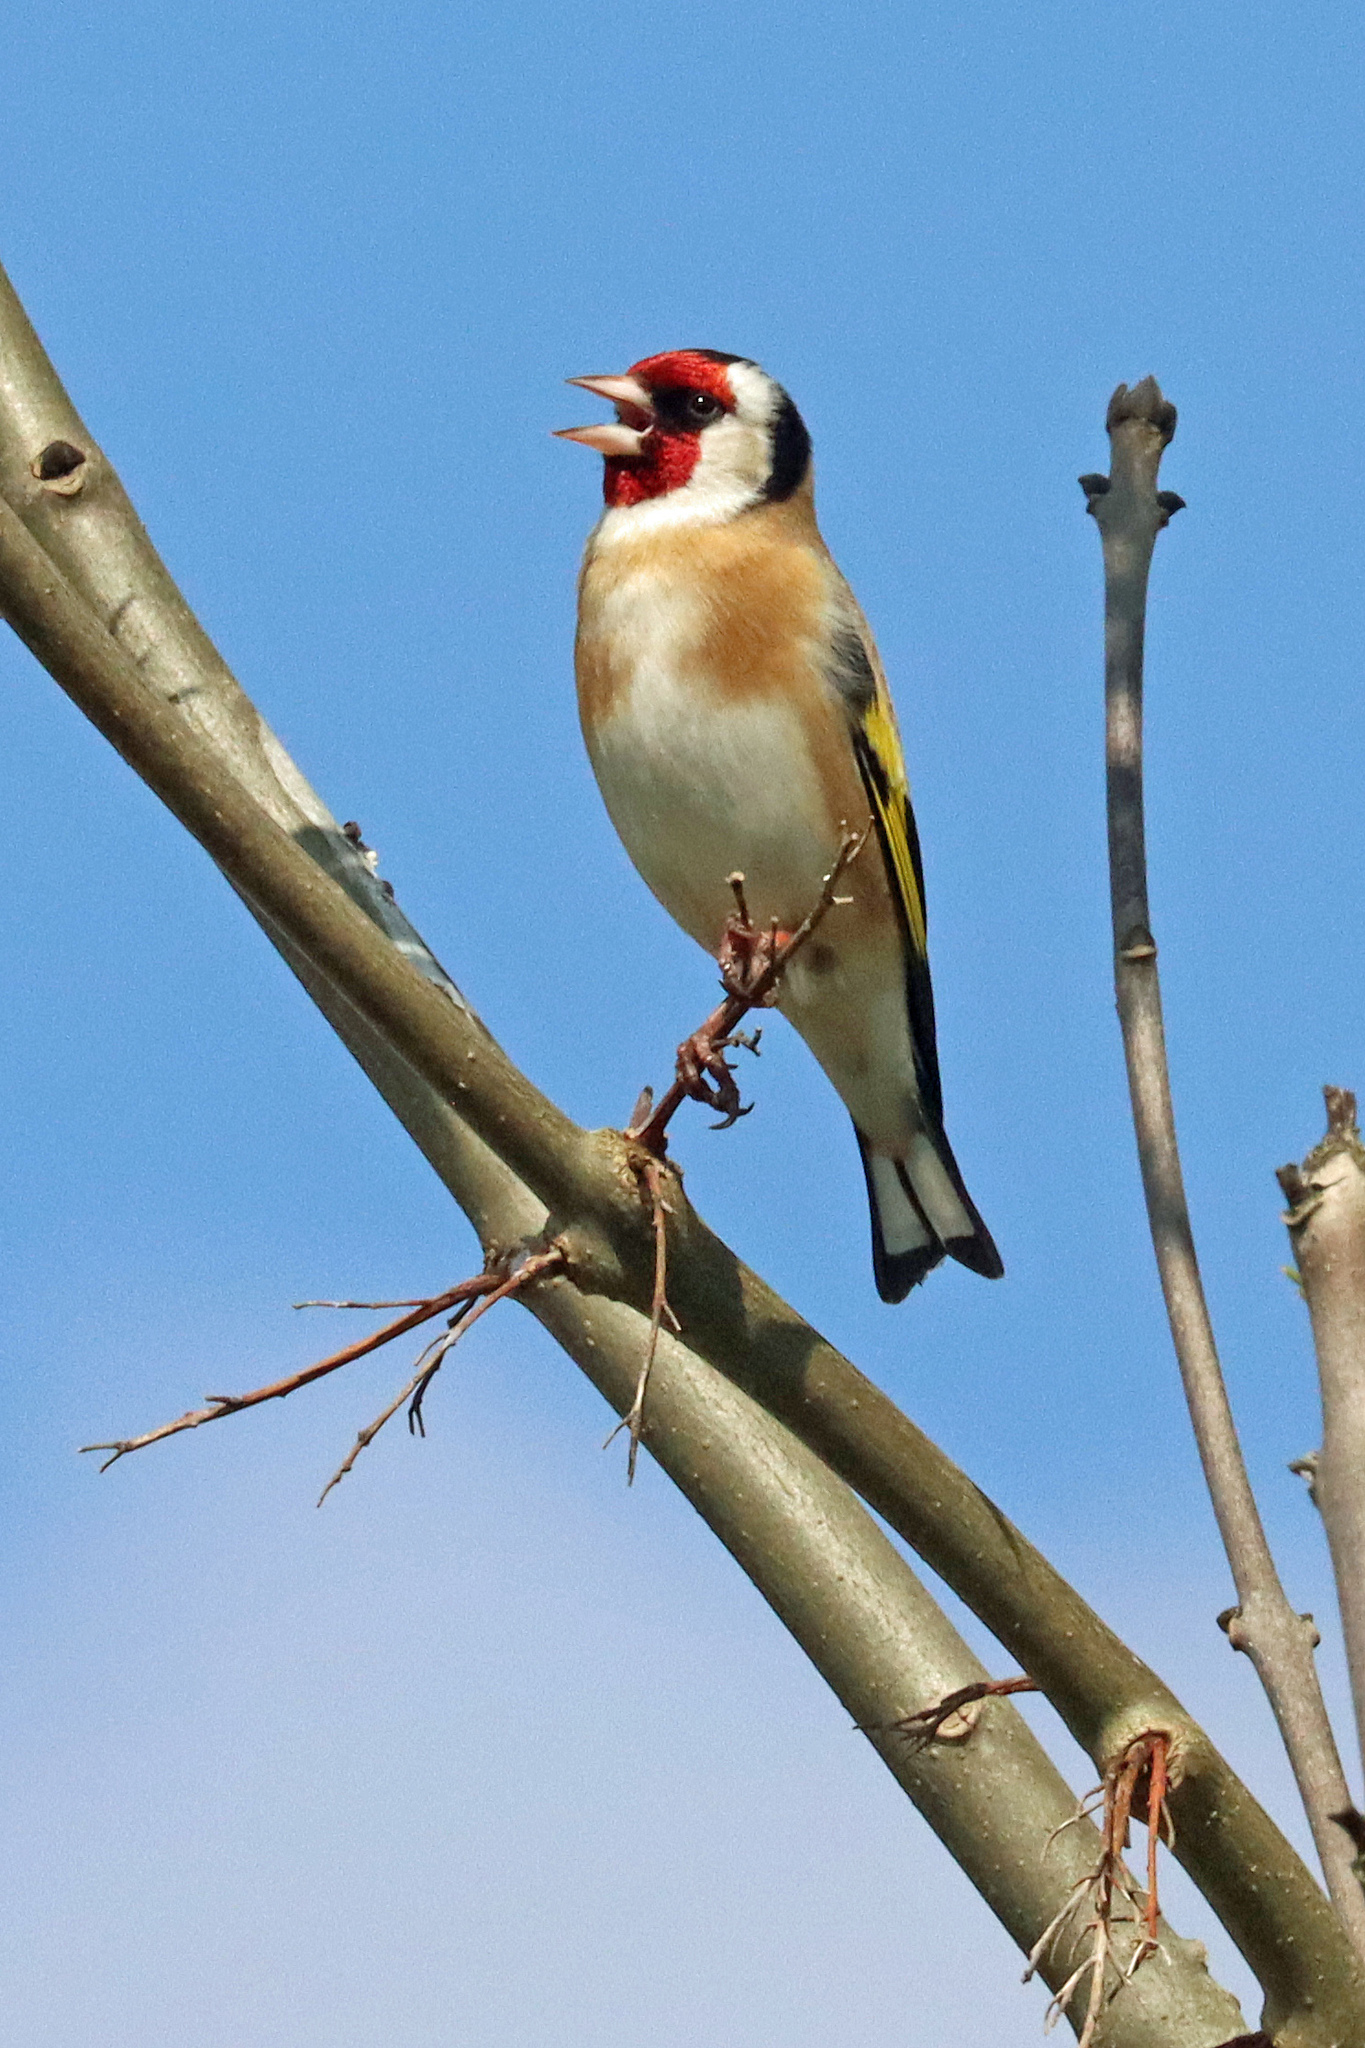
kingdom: Animalia
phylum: Chordata
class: Aves
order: Passeriformes
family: Fringillidae
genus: Carduelis
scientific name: Carduelis carduelis
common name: European goldfinch
